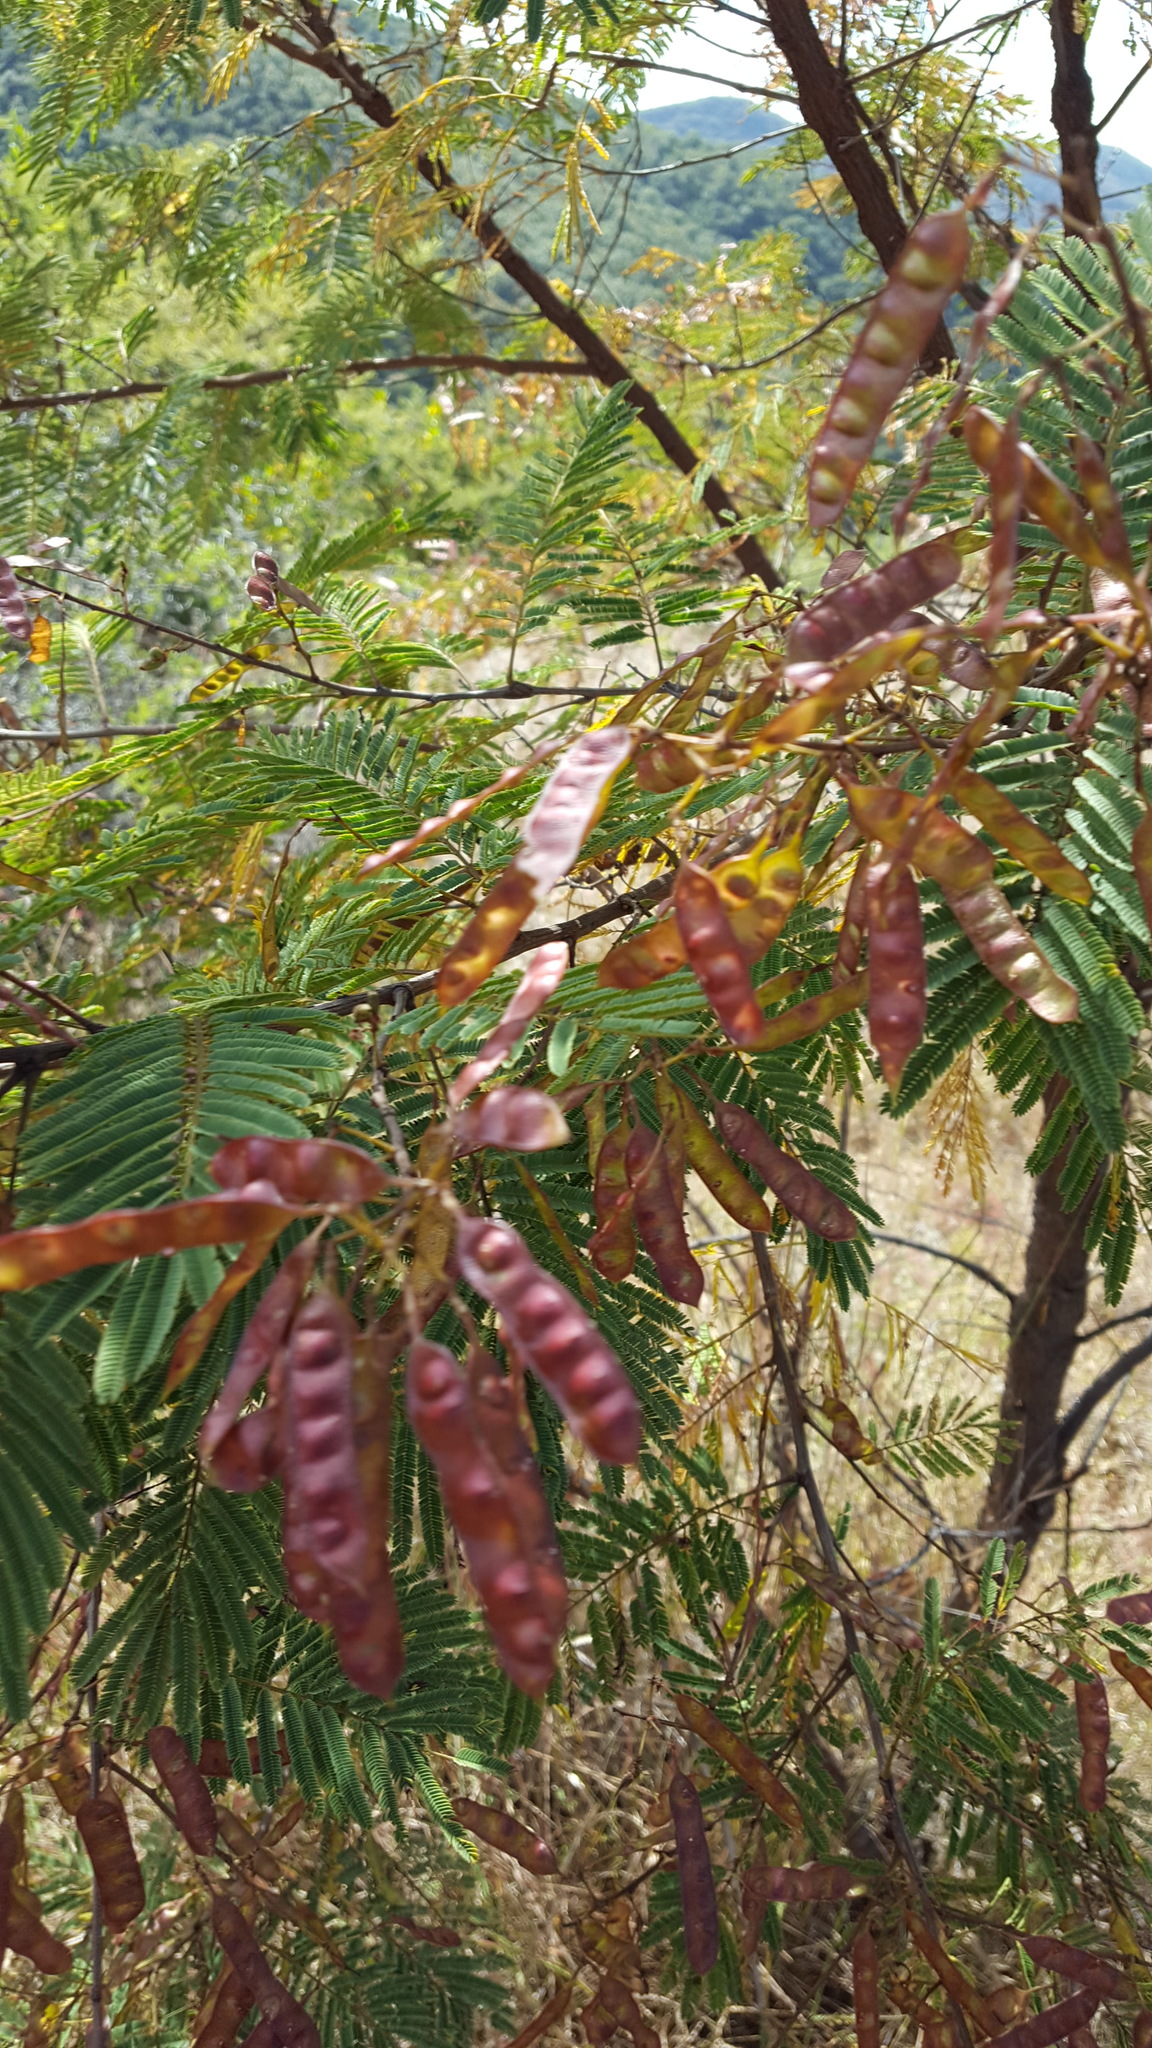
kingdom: Plantae
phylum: Tracheophyta
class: Magnoliopsida
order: Fabales
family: Fabaceae
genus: Acaciella
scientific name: Acaciella angustissima
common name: Prairie acacia
